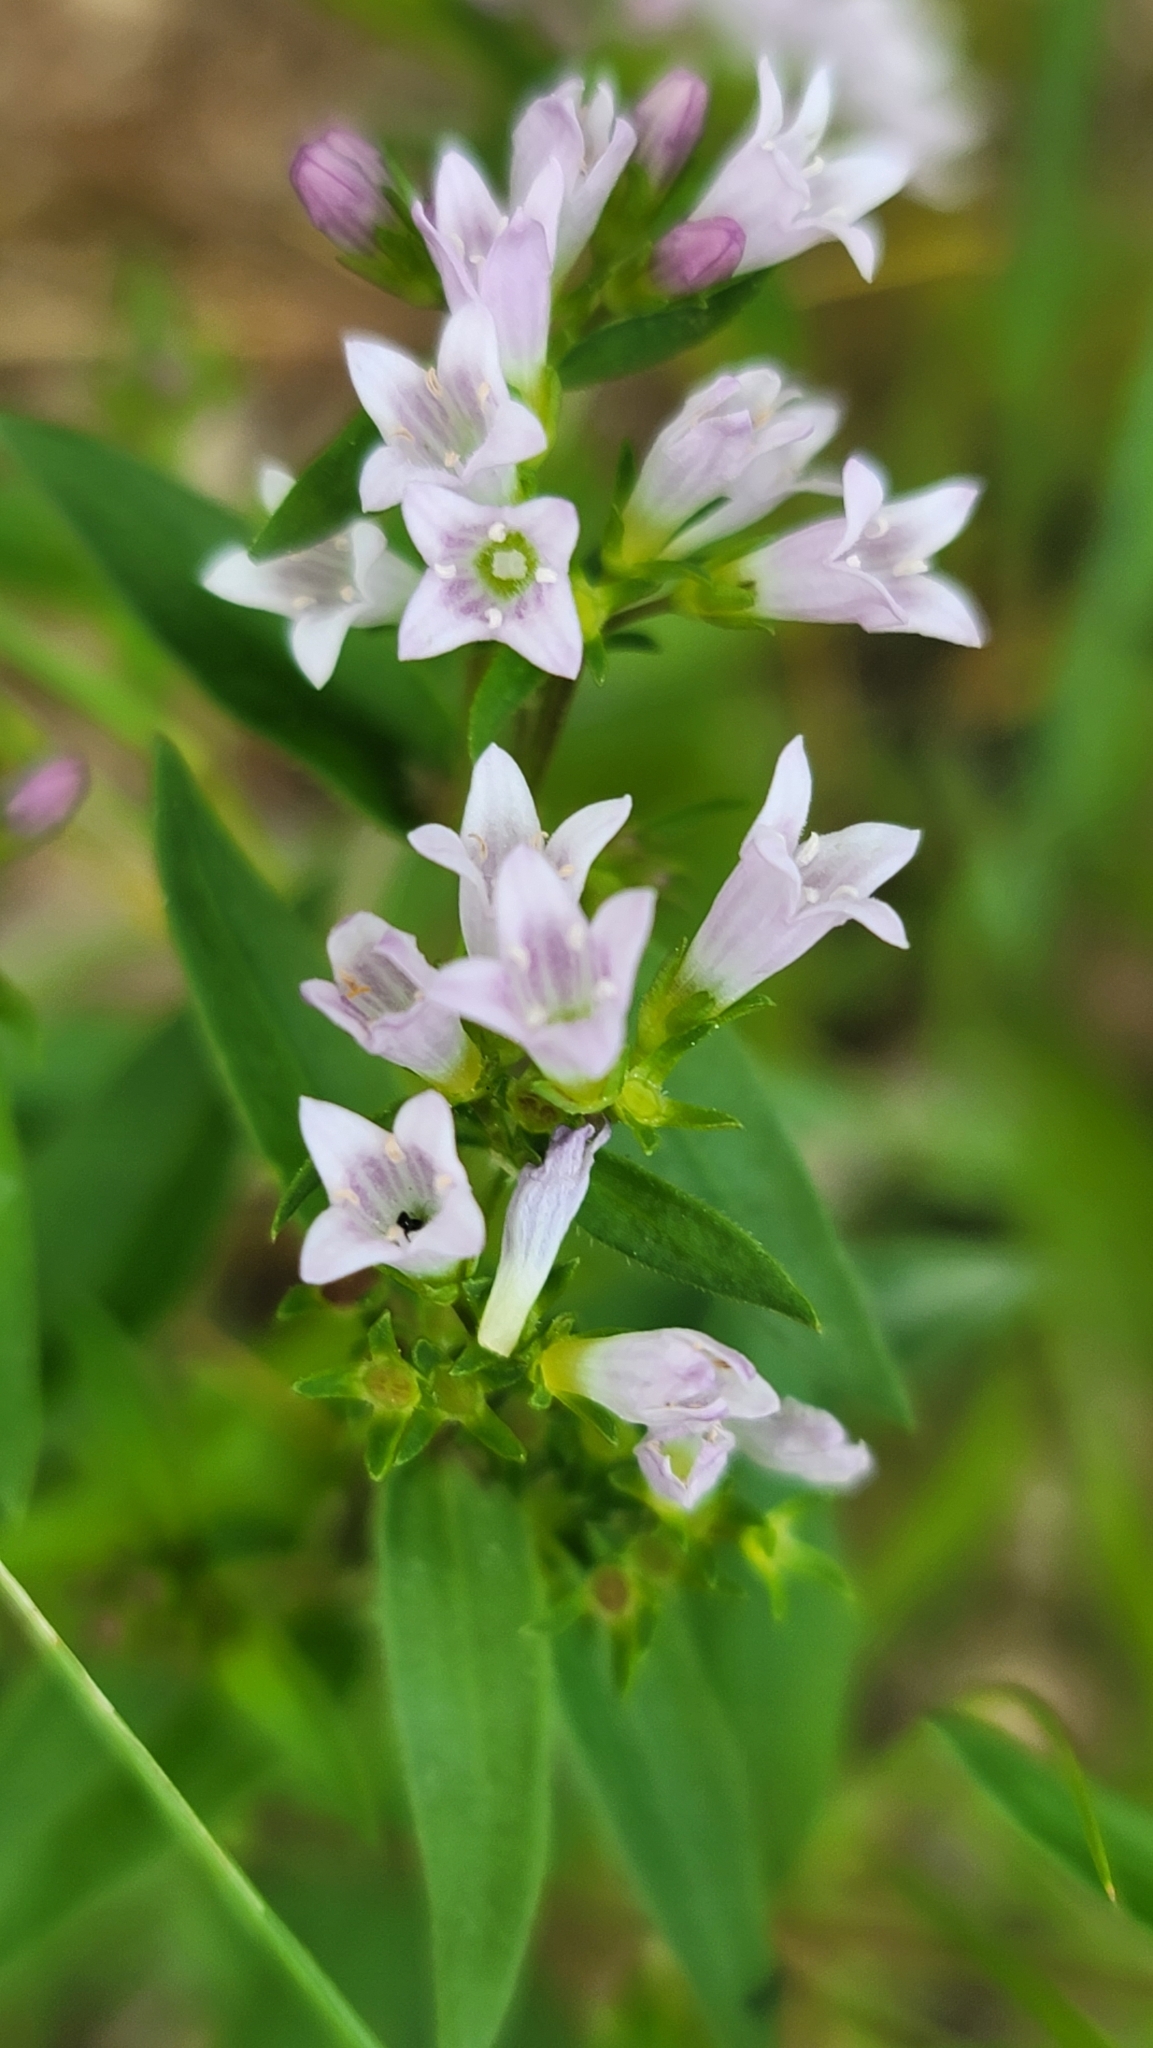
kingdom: Plantae
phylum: Tracheophyta
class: Magnoliopsida
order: Gentianales
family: Rubiaceae
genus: Houstonia
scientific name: Houstonia purpurea
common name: Summer bluet
